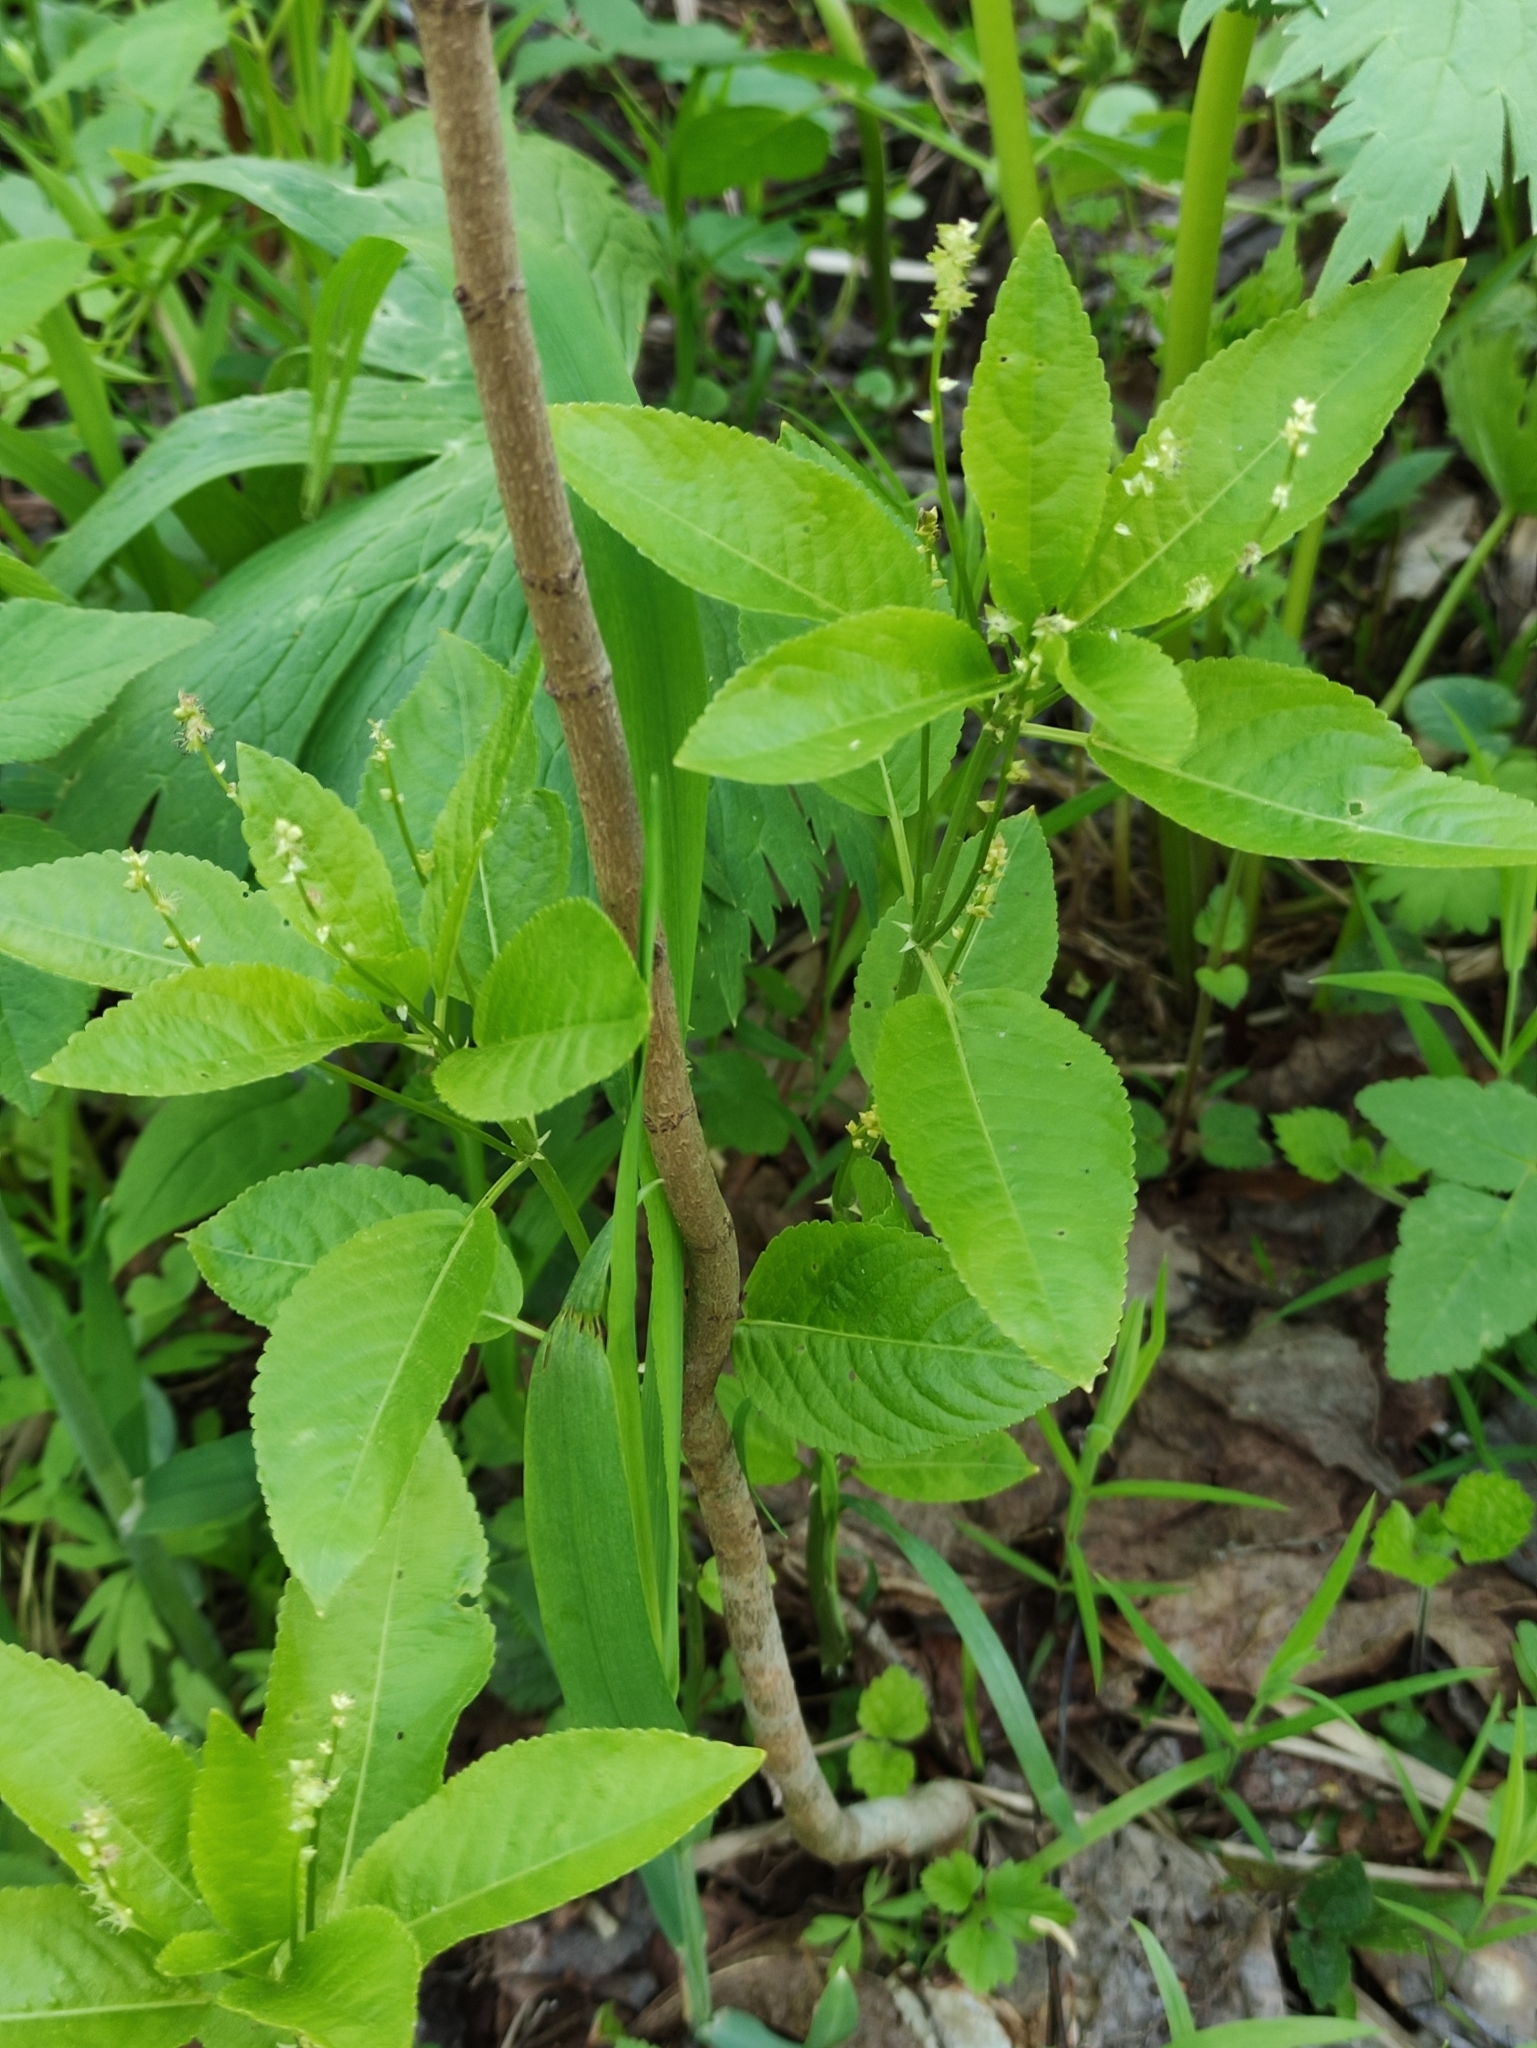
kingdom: Plantae
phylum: Tracheophyta
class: Magnoliopsida
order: Malpighiales
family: Euphorbiaceae
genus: Mercurialis
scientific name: Mercurialis perennis
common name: Dog mercury
